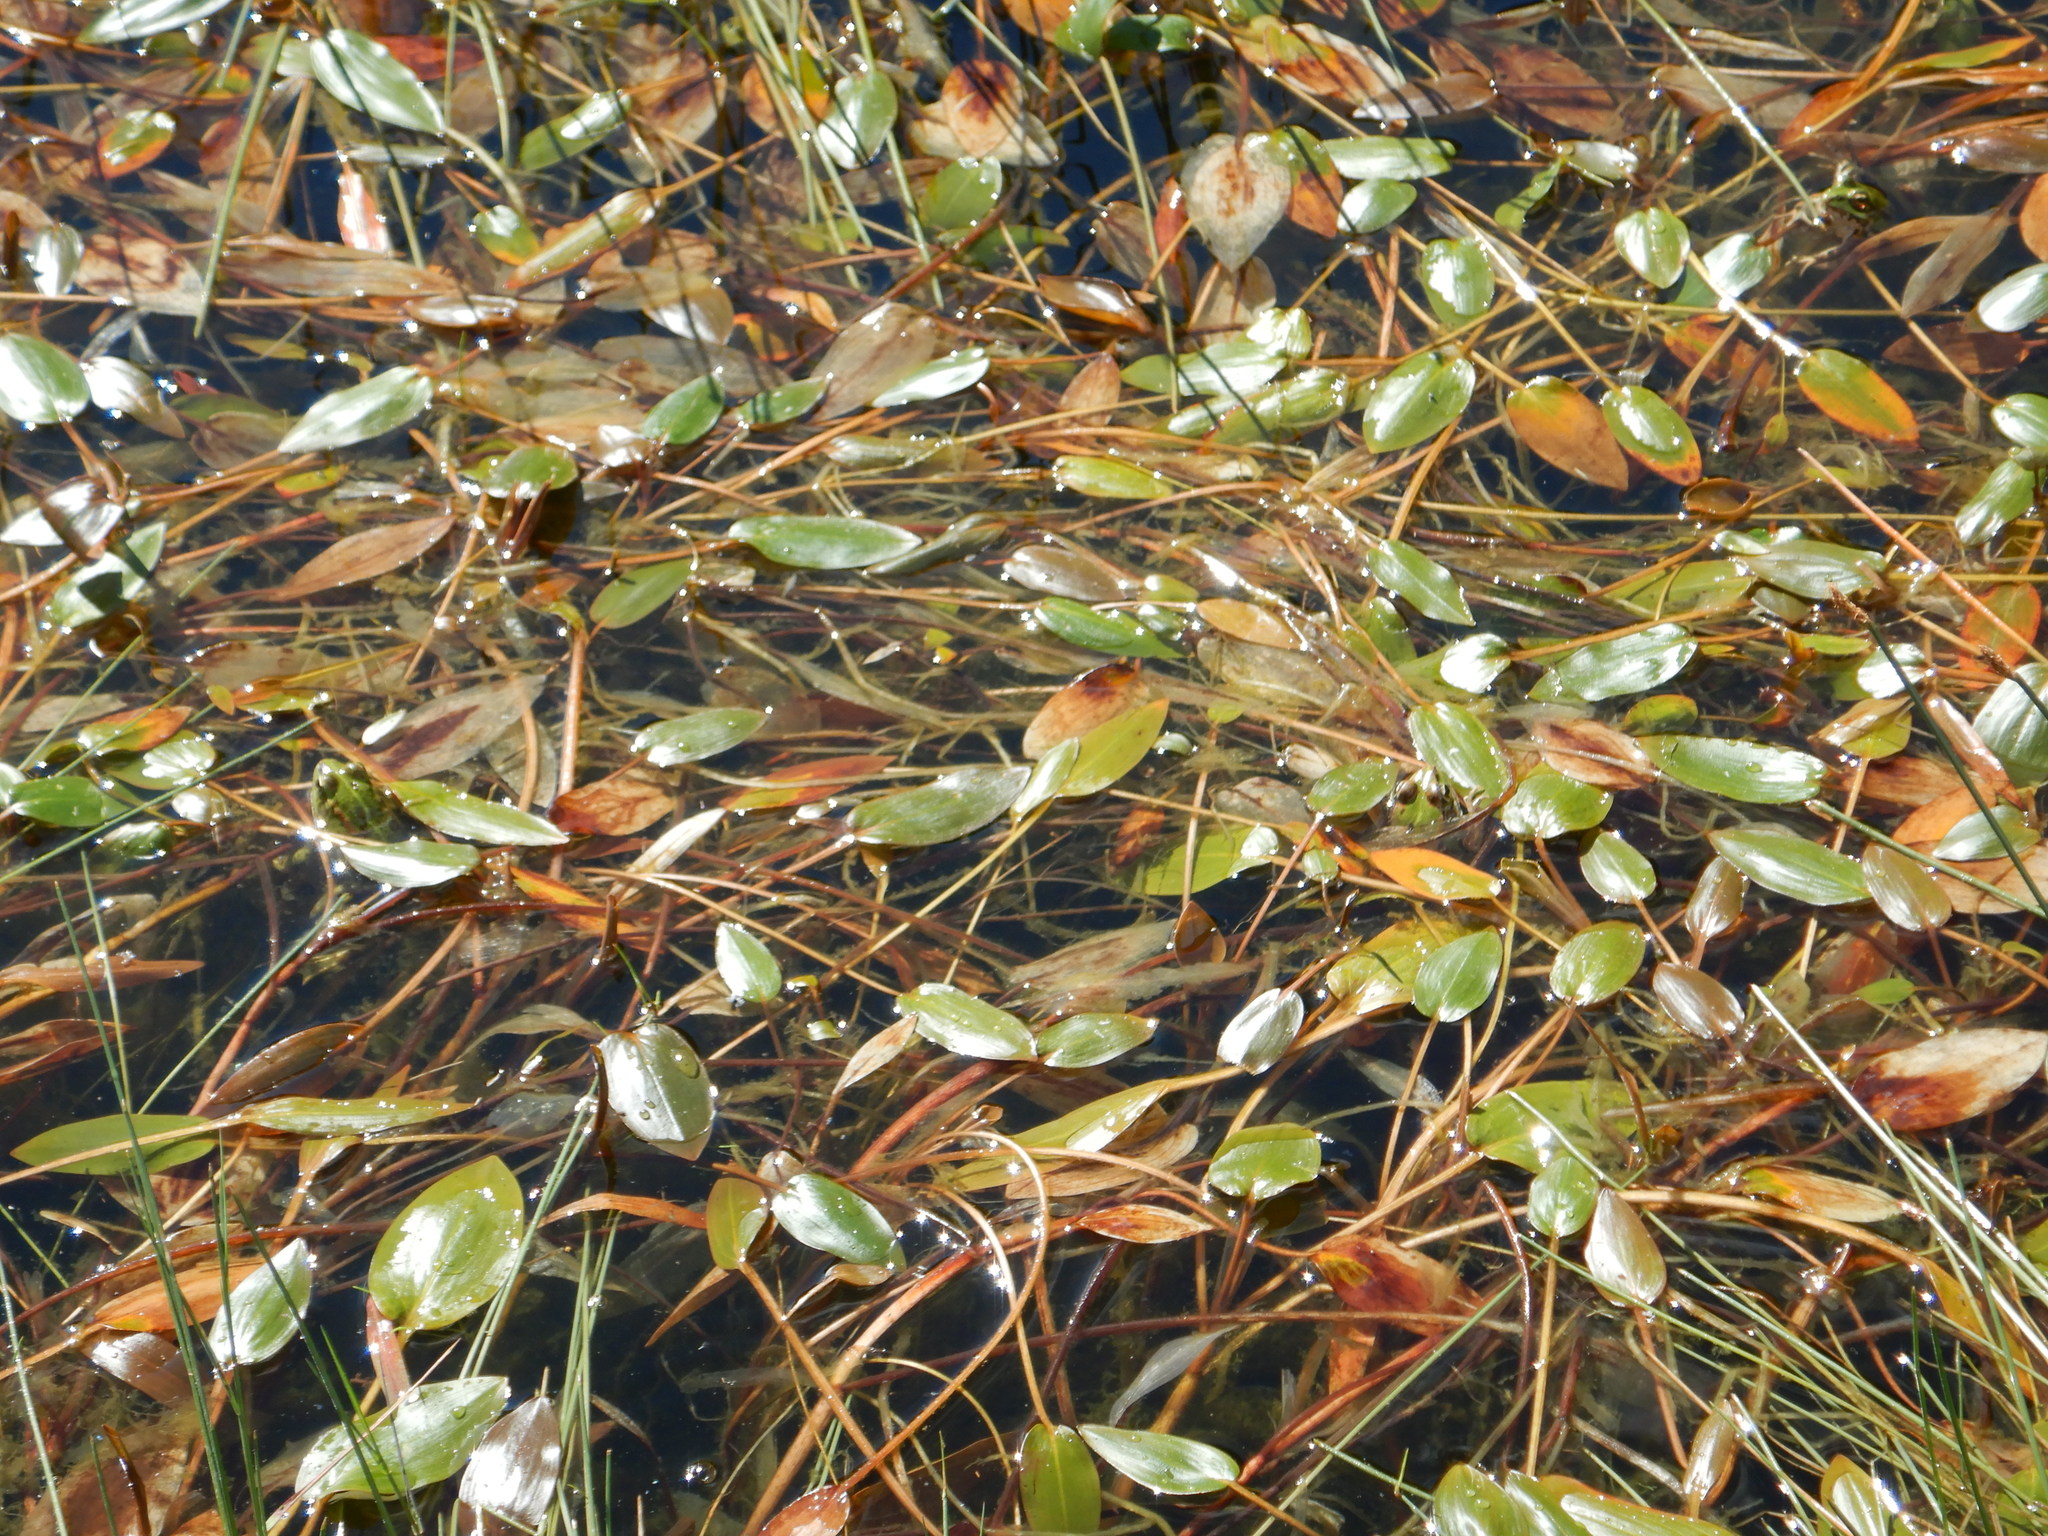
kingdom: Plantae
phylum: Tracheophyta
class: Liliopsida
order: Alismatales
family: Potamogetonaceae
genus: Potamogeton
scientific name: Potamogeton polygonifolius
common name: Bog pondweed
